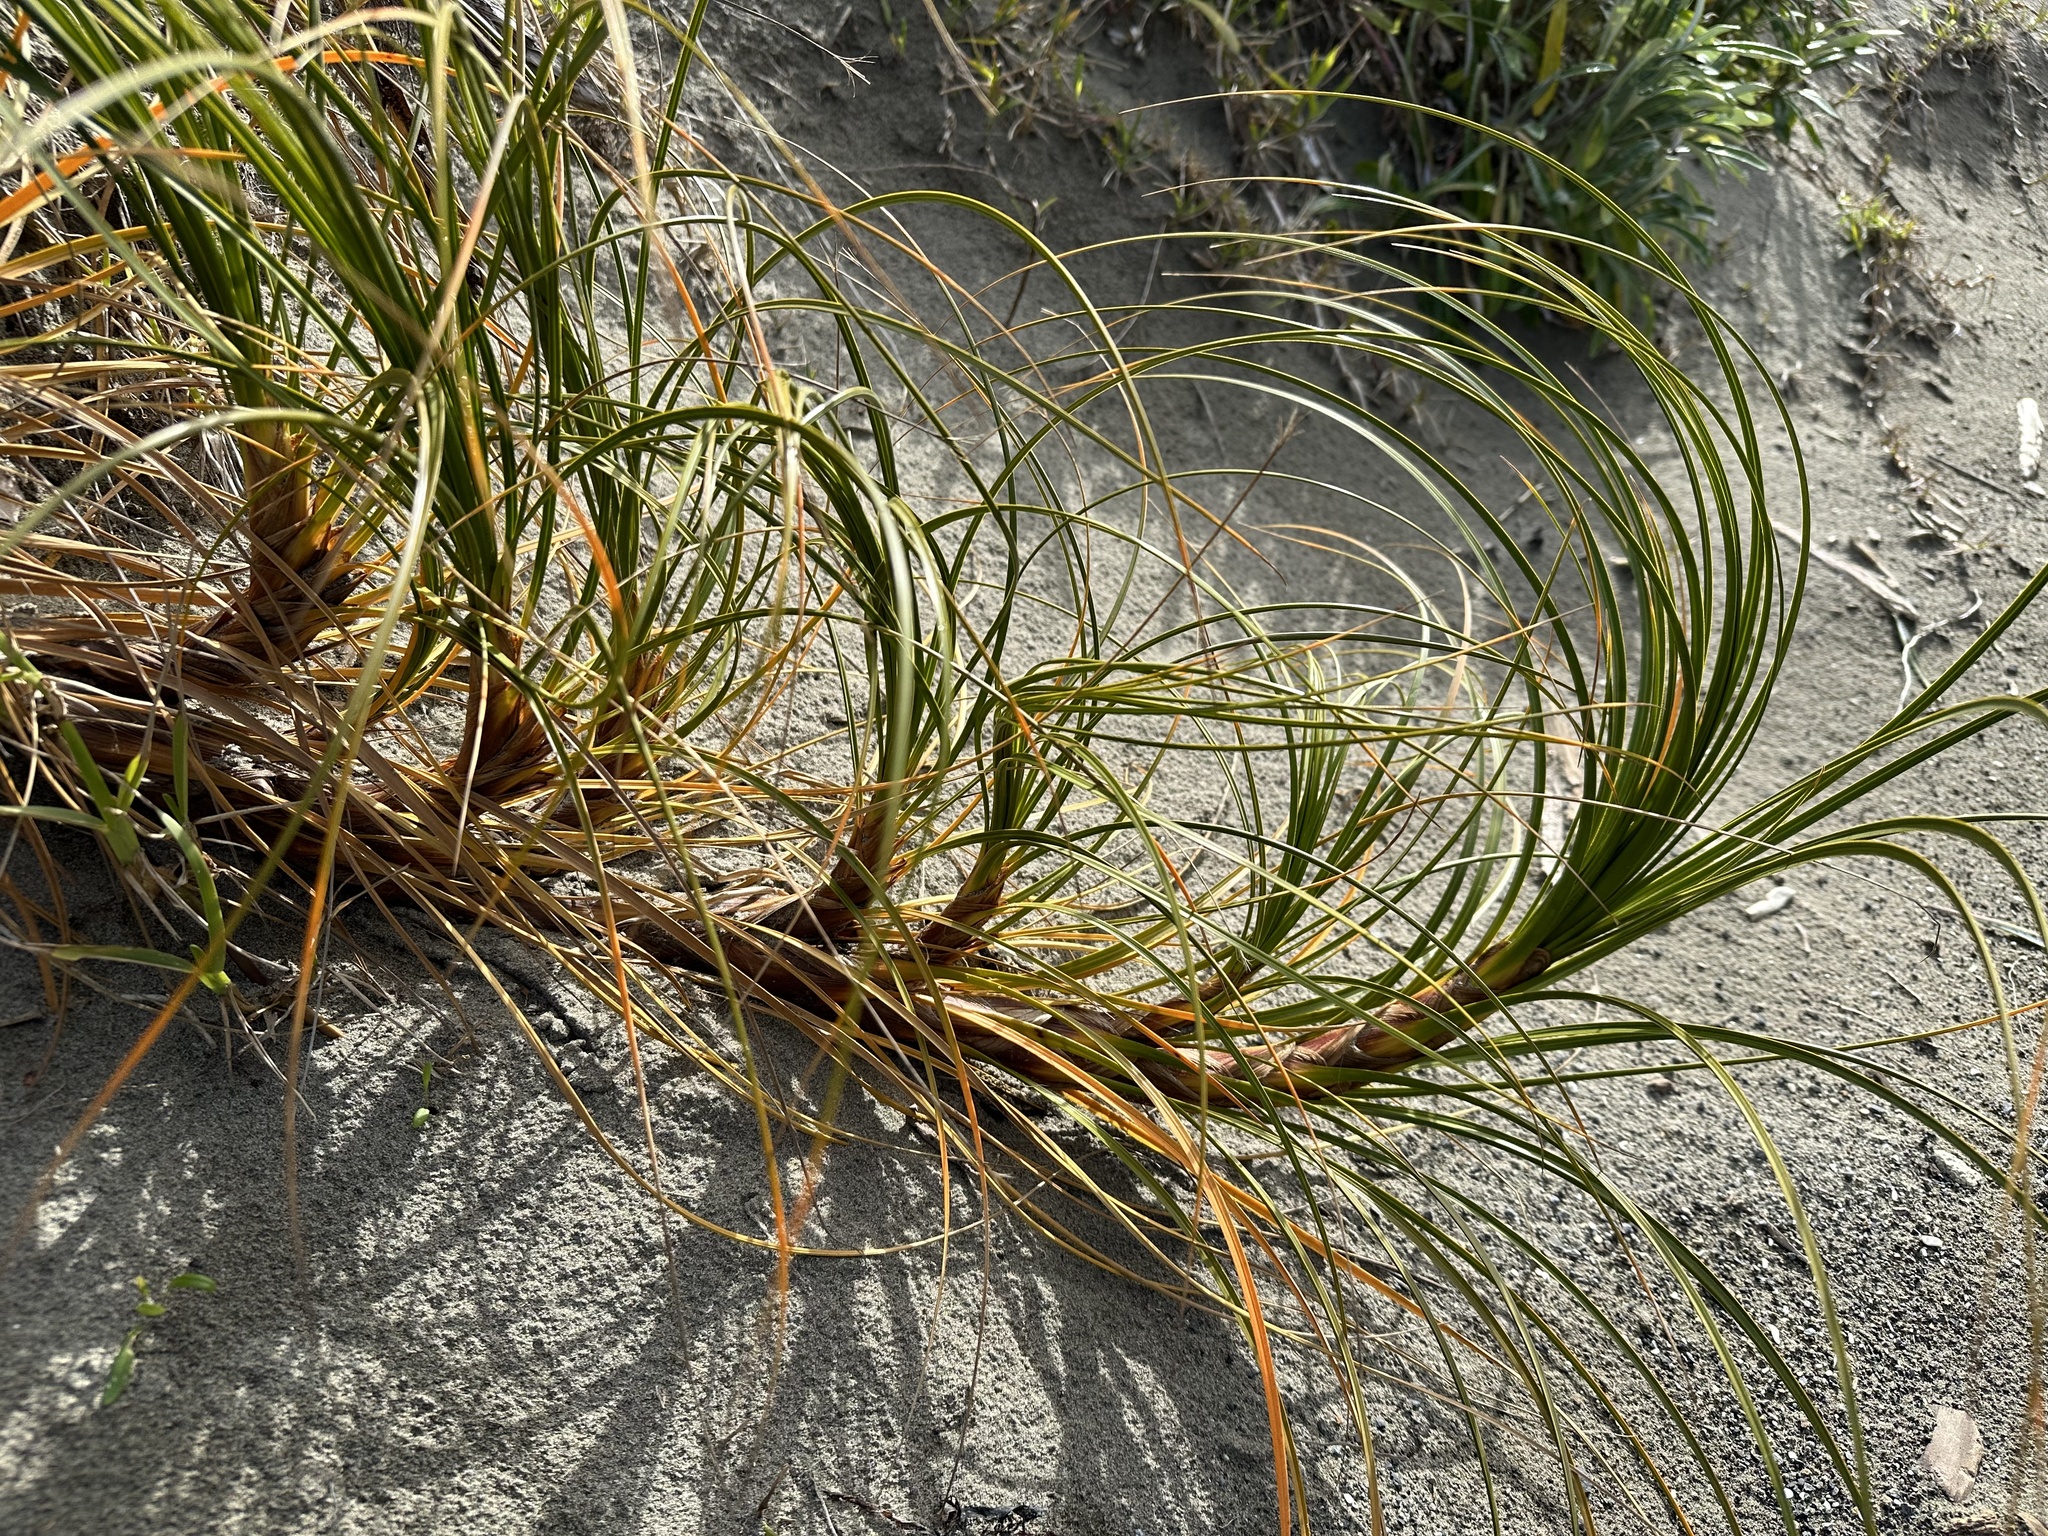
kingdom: Plantae
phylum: Tracheophyta
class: Liliopsida
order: Poales
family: Cyperaceae
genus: Ficinia
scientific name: Ficinia spiralis
